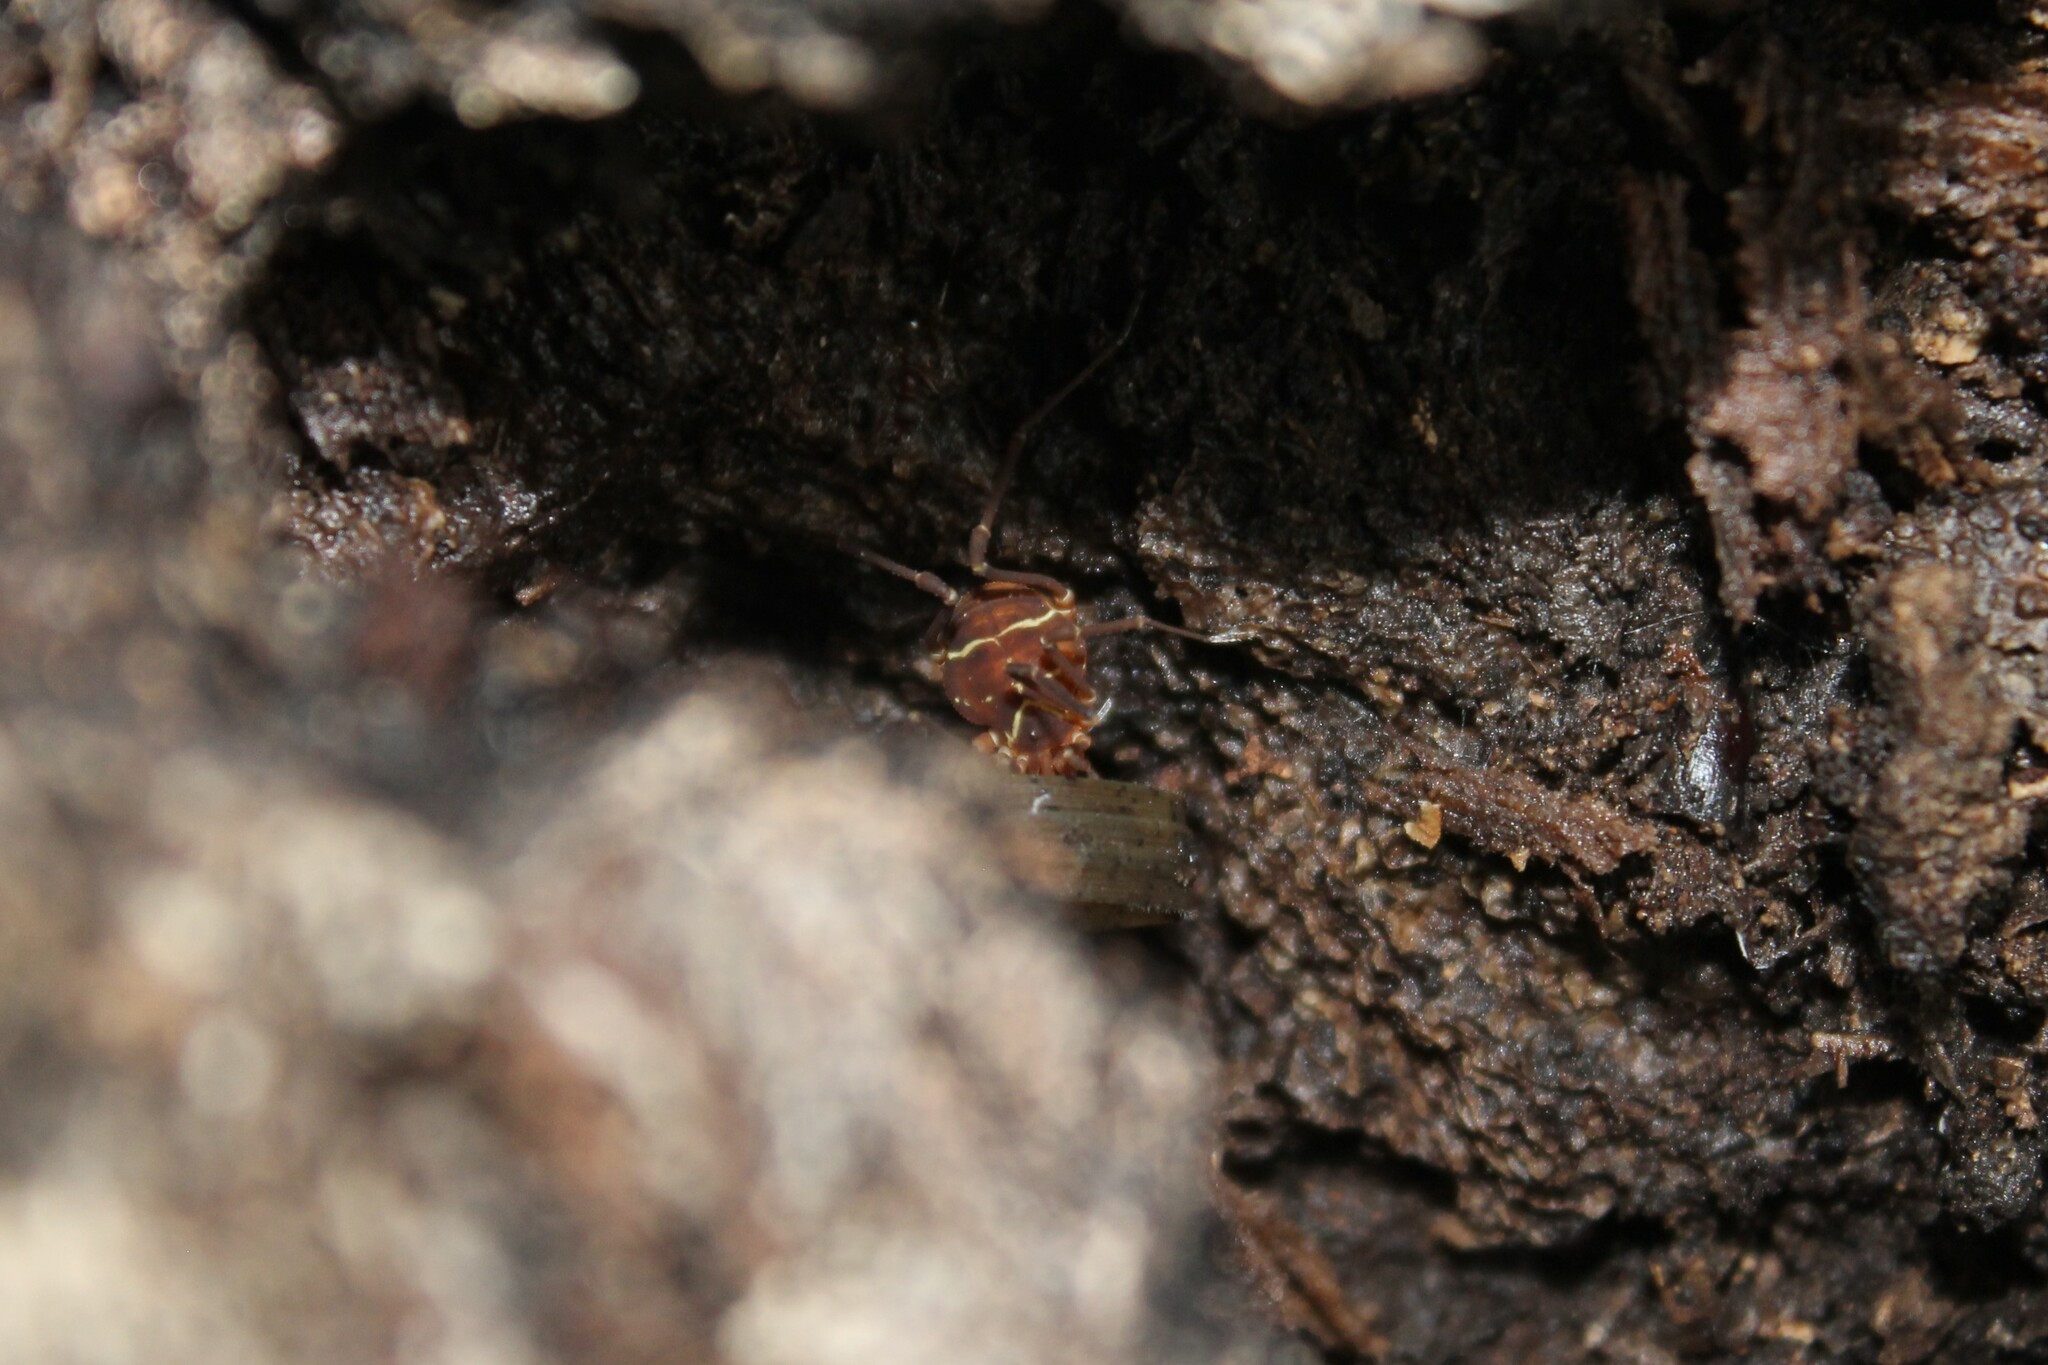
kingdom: Animalia
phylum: Arthropoda
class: Arachnida
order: Opiliones
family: Cosmetidae
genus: Libitioides
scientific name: Libitioides sayi
